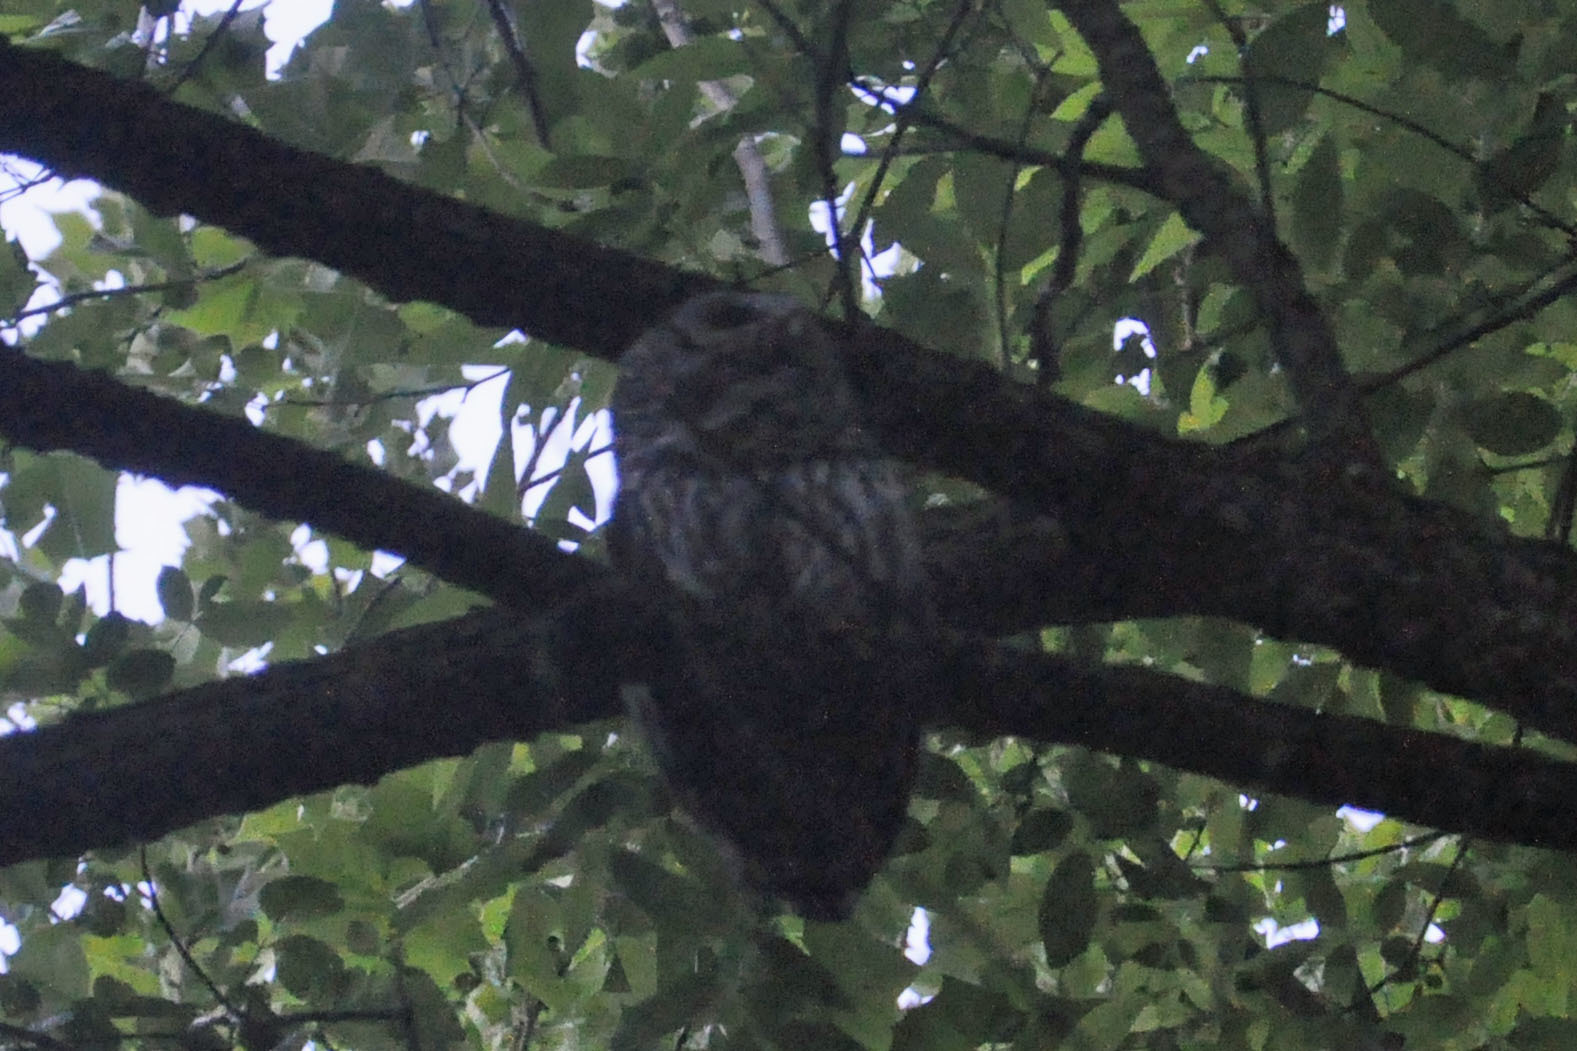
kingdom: Animalia
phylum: Chordata
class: Aves
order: Strigiformes
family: Strigidae
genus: Strix
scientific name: Strix varia
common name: Barred owl
